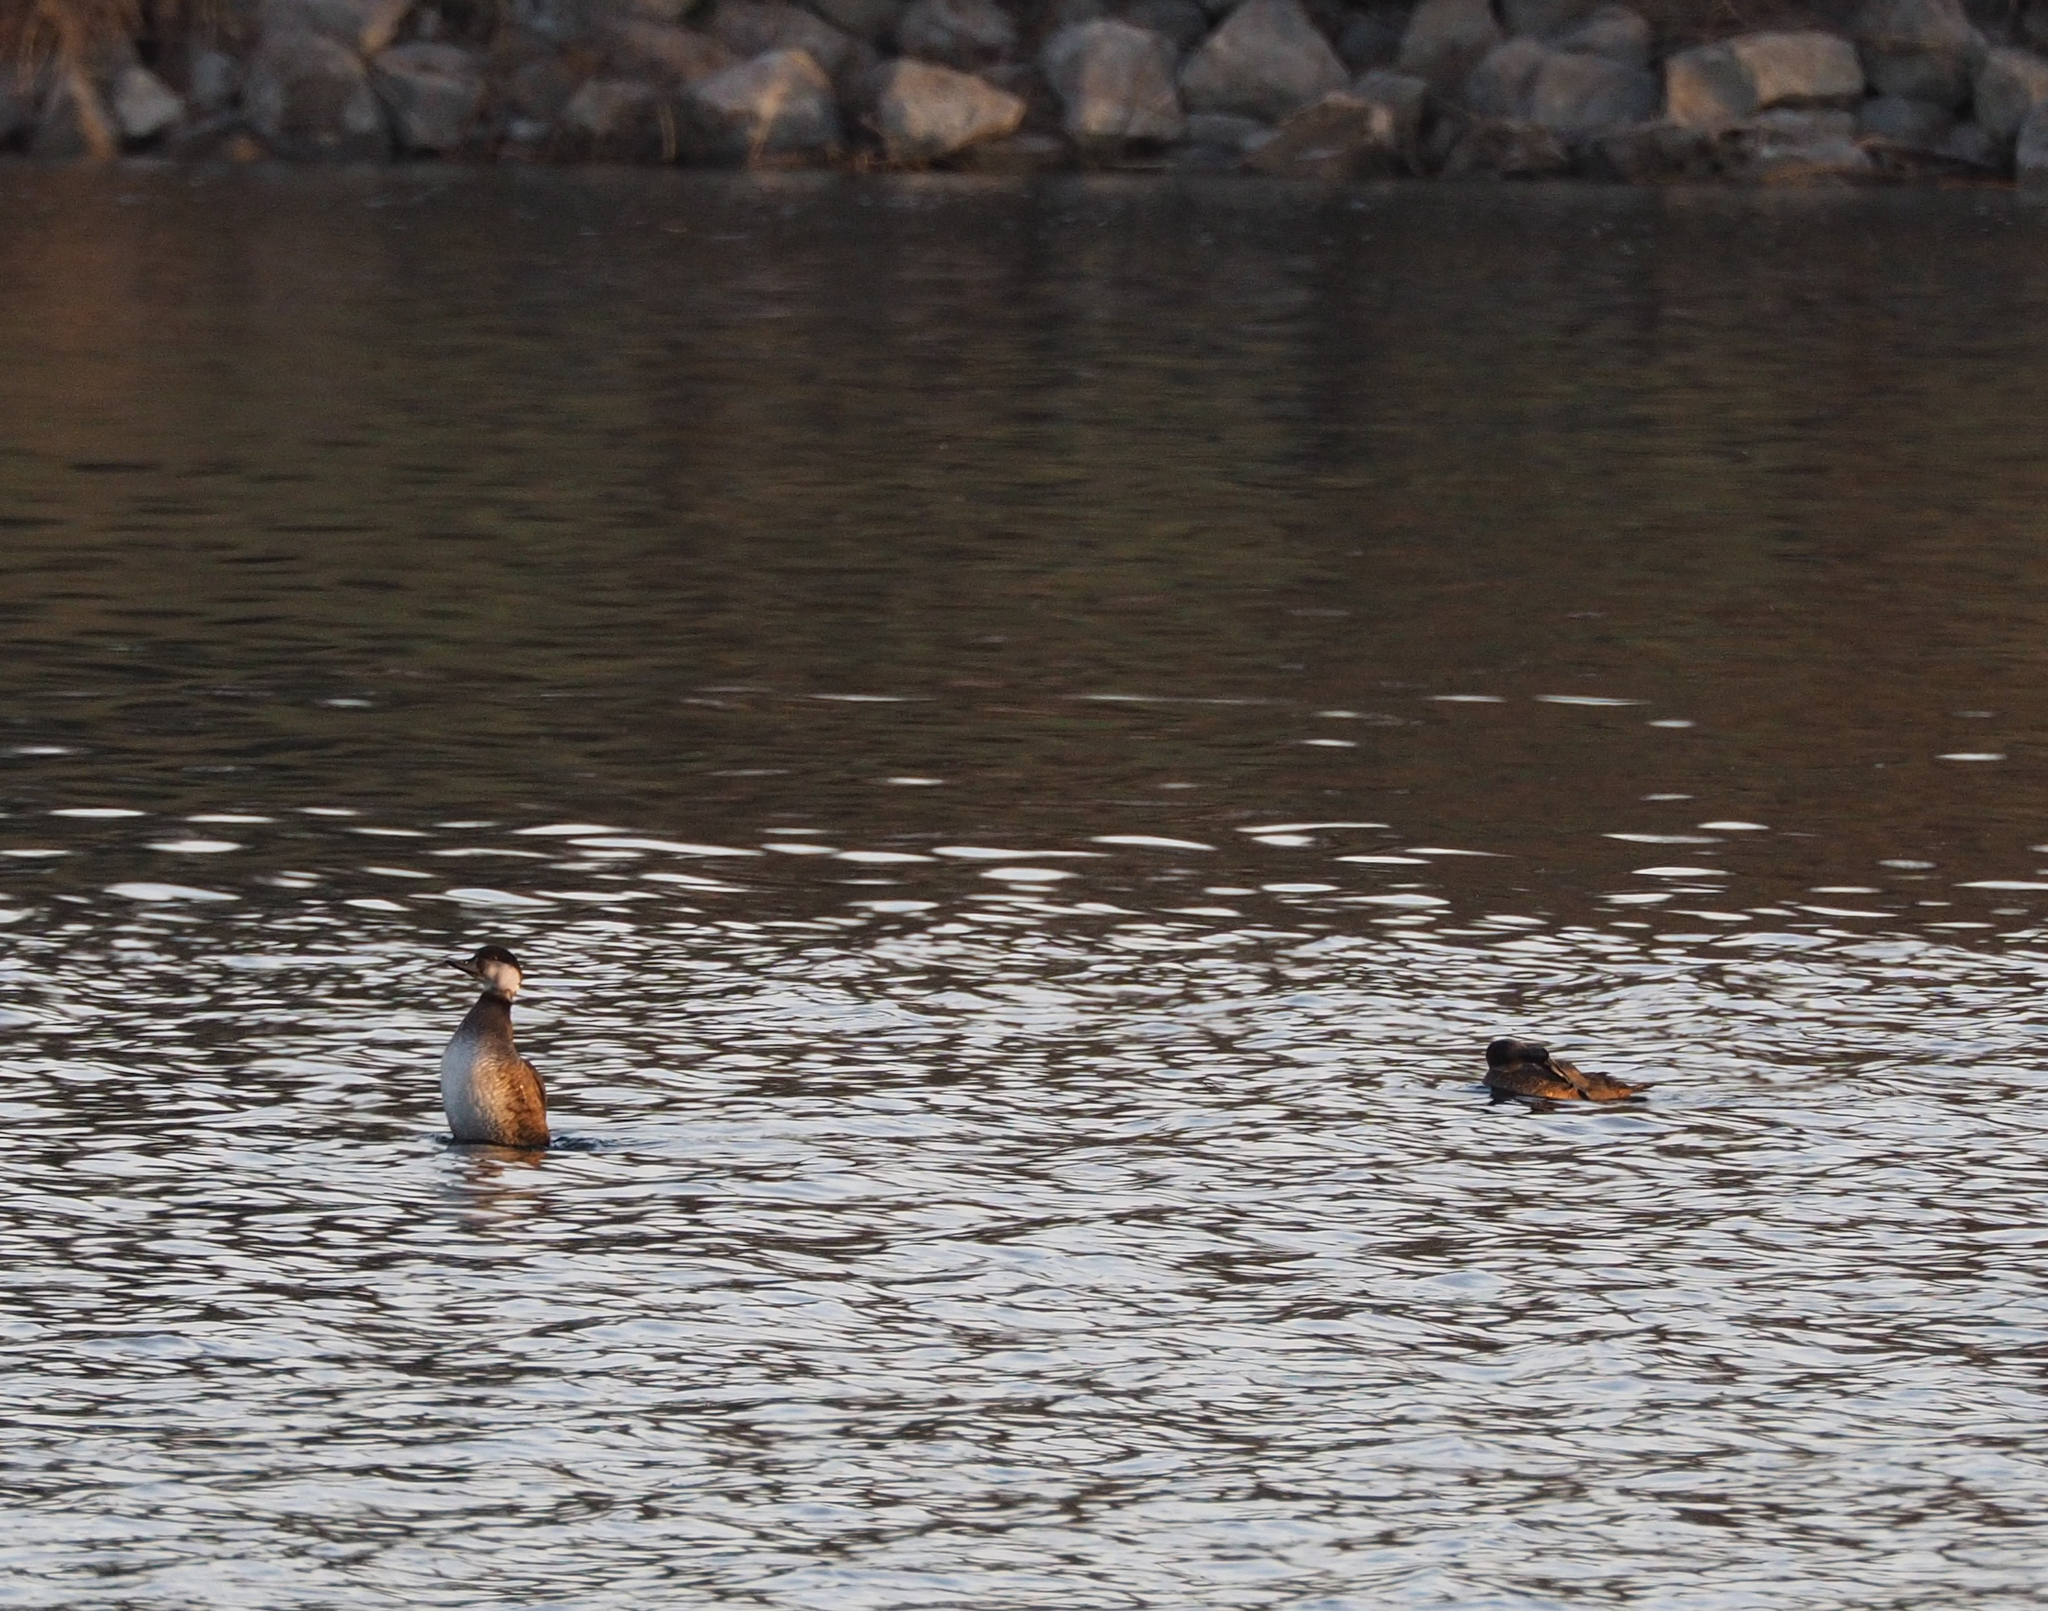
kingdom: Animalia
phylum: Chordata
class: Aves
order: Anseriformes
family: Anatidae
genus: Melanitta
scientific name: Melanitta nigra
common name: Common scoter
